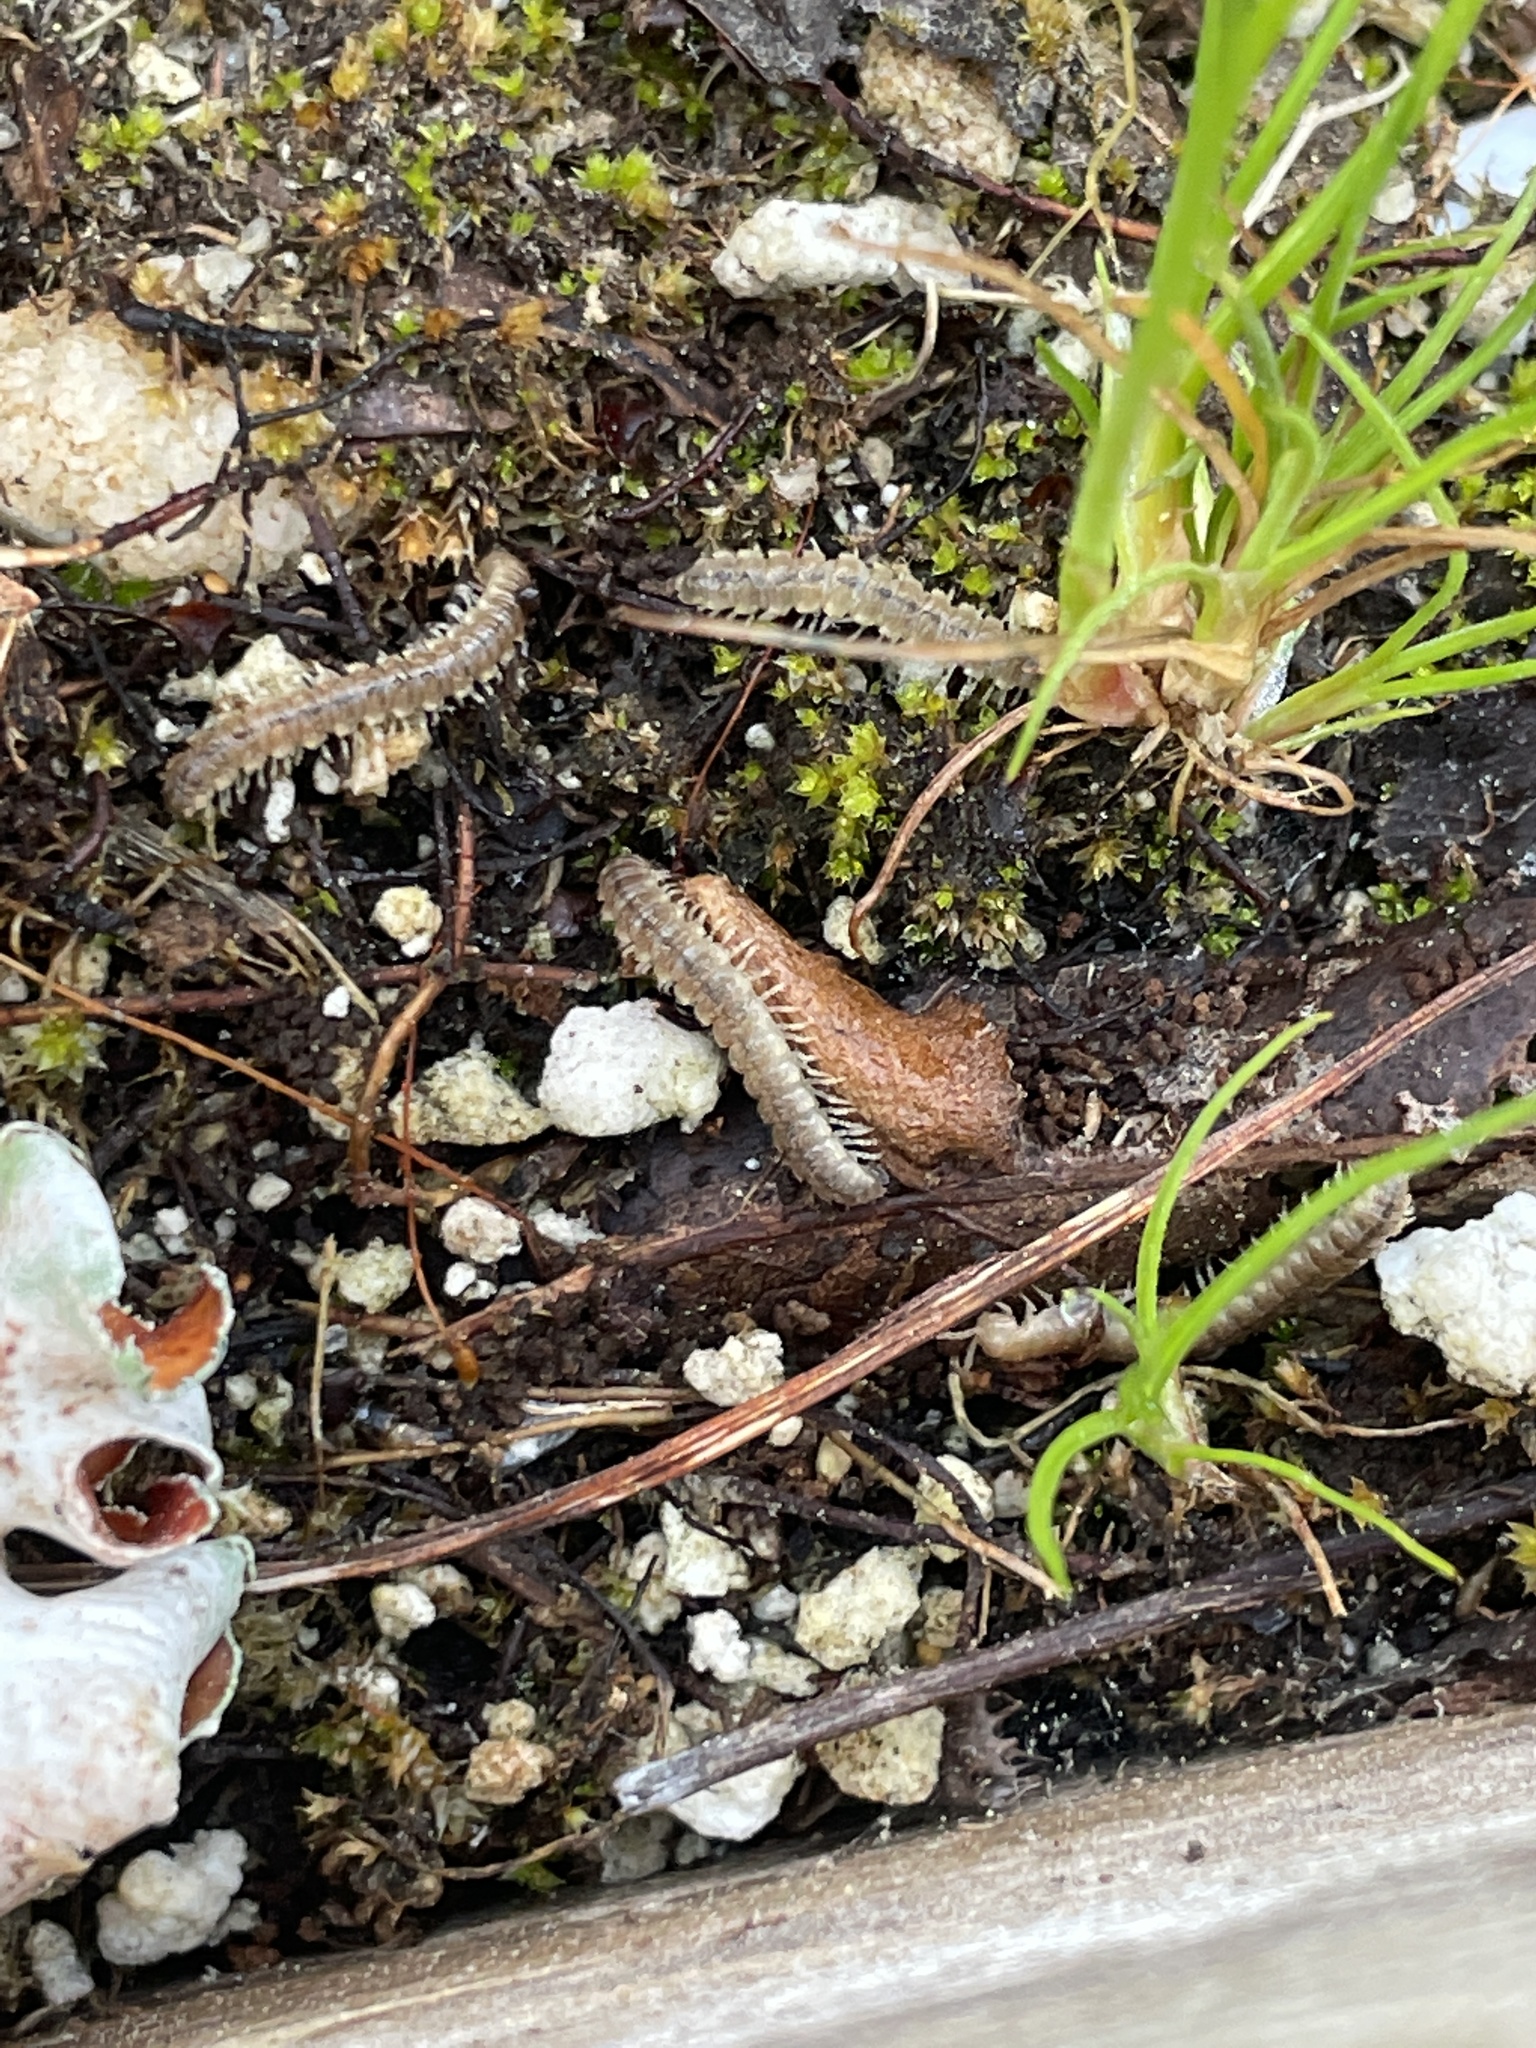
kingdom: Animalia
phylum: Arthropoda
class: Diplopoda
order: Polydesmida
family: Paradoxosomatidae
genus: Oxidus
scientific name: Oxidus gracilis
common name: Greenhouse millipede
